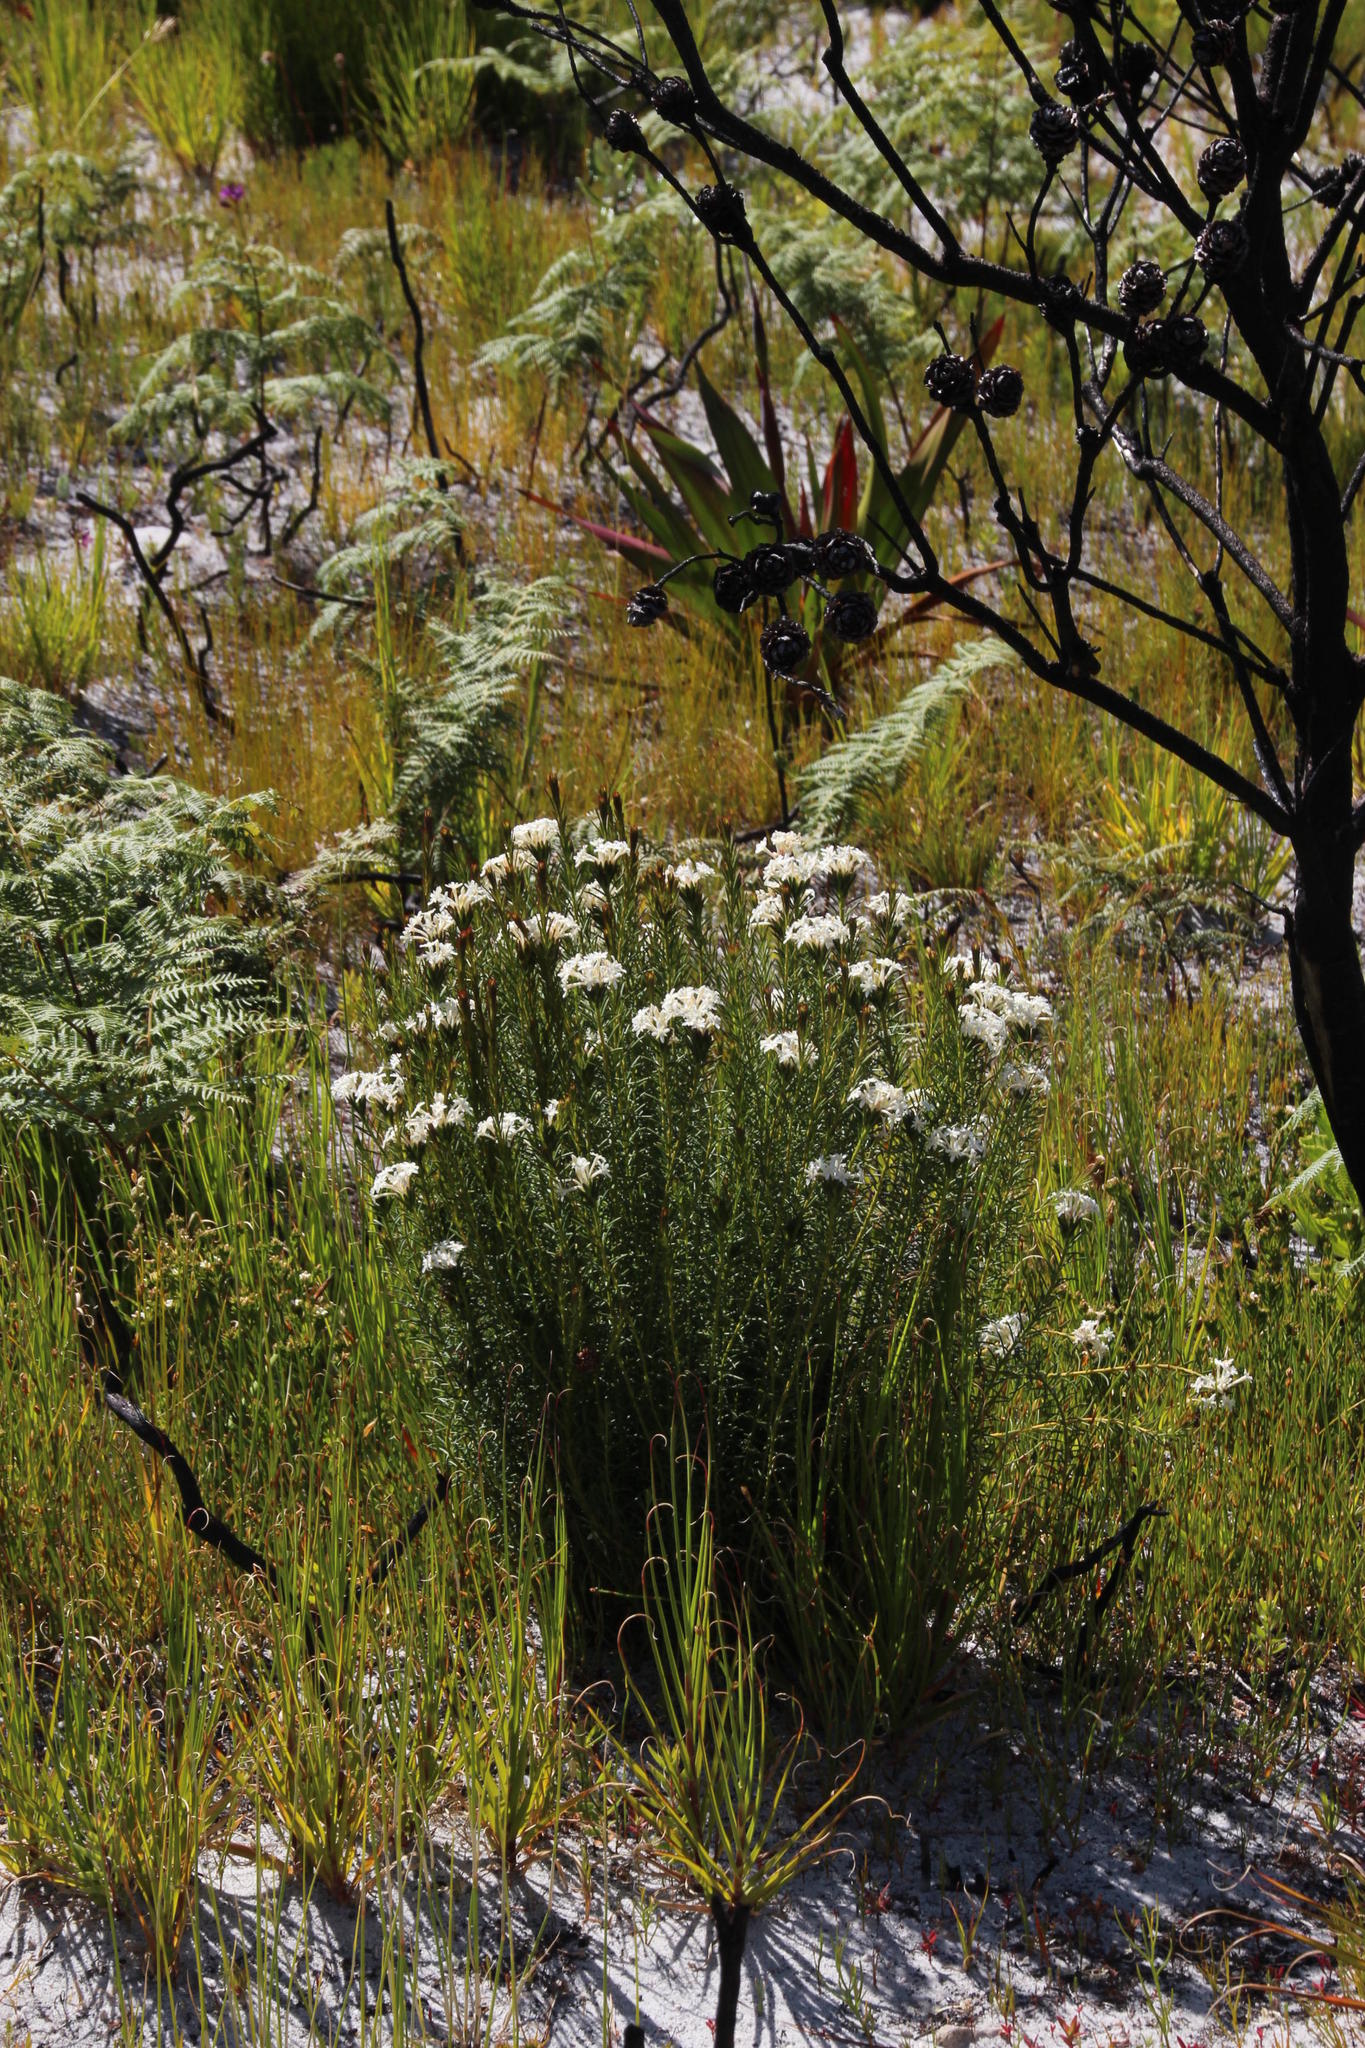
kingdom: Plantae
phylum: Tracheophyta
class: Magnoliopsida
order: Malvales
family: Thymelaeaceae
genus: Gnidia
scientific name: Gnidia pinifolia
